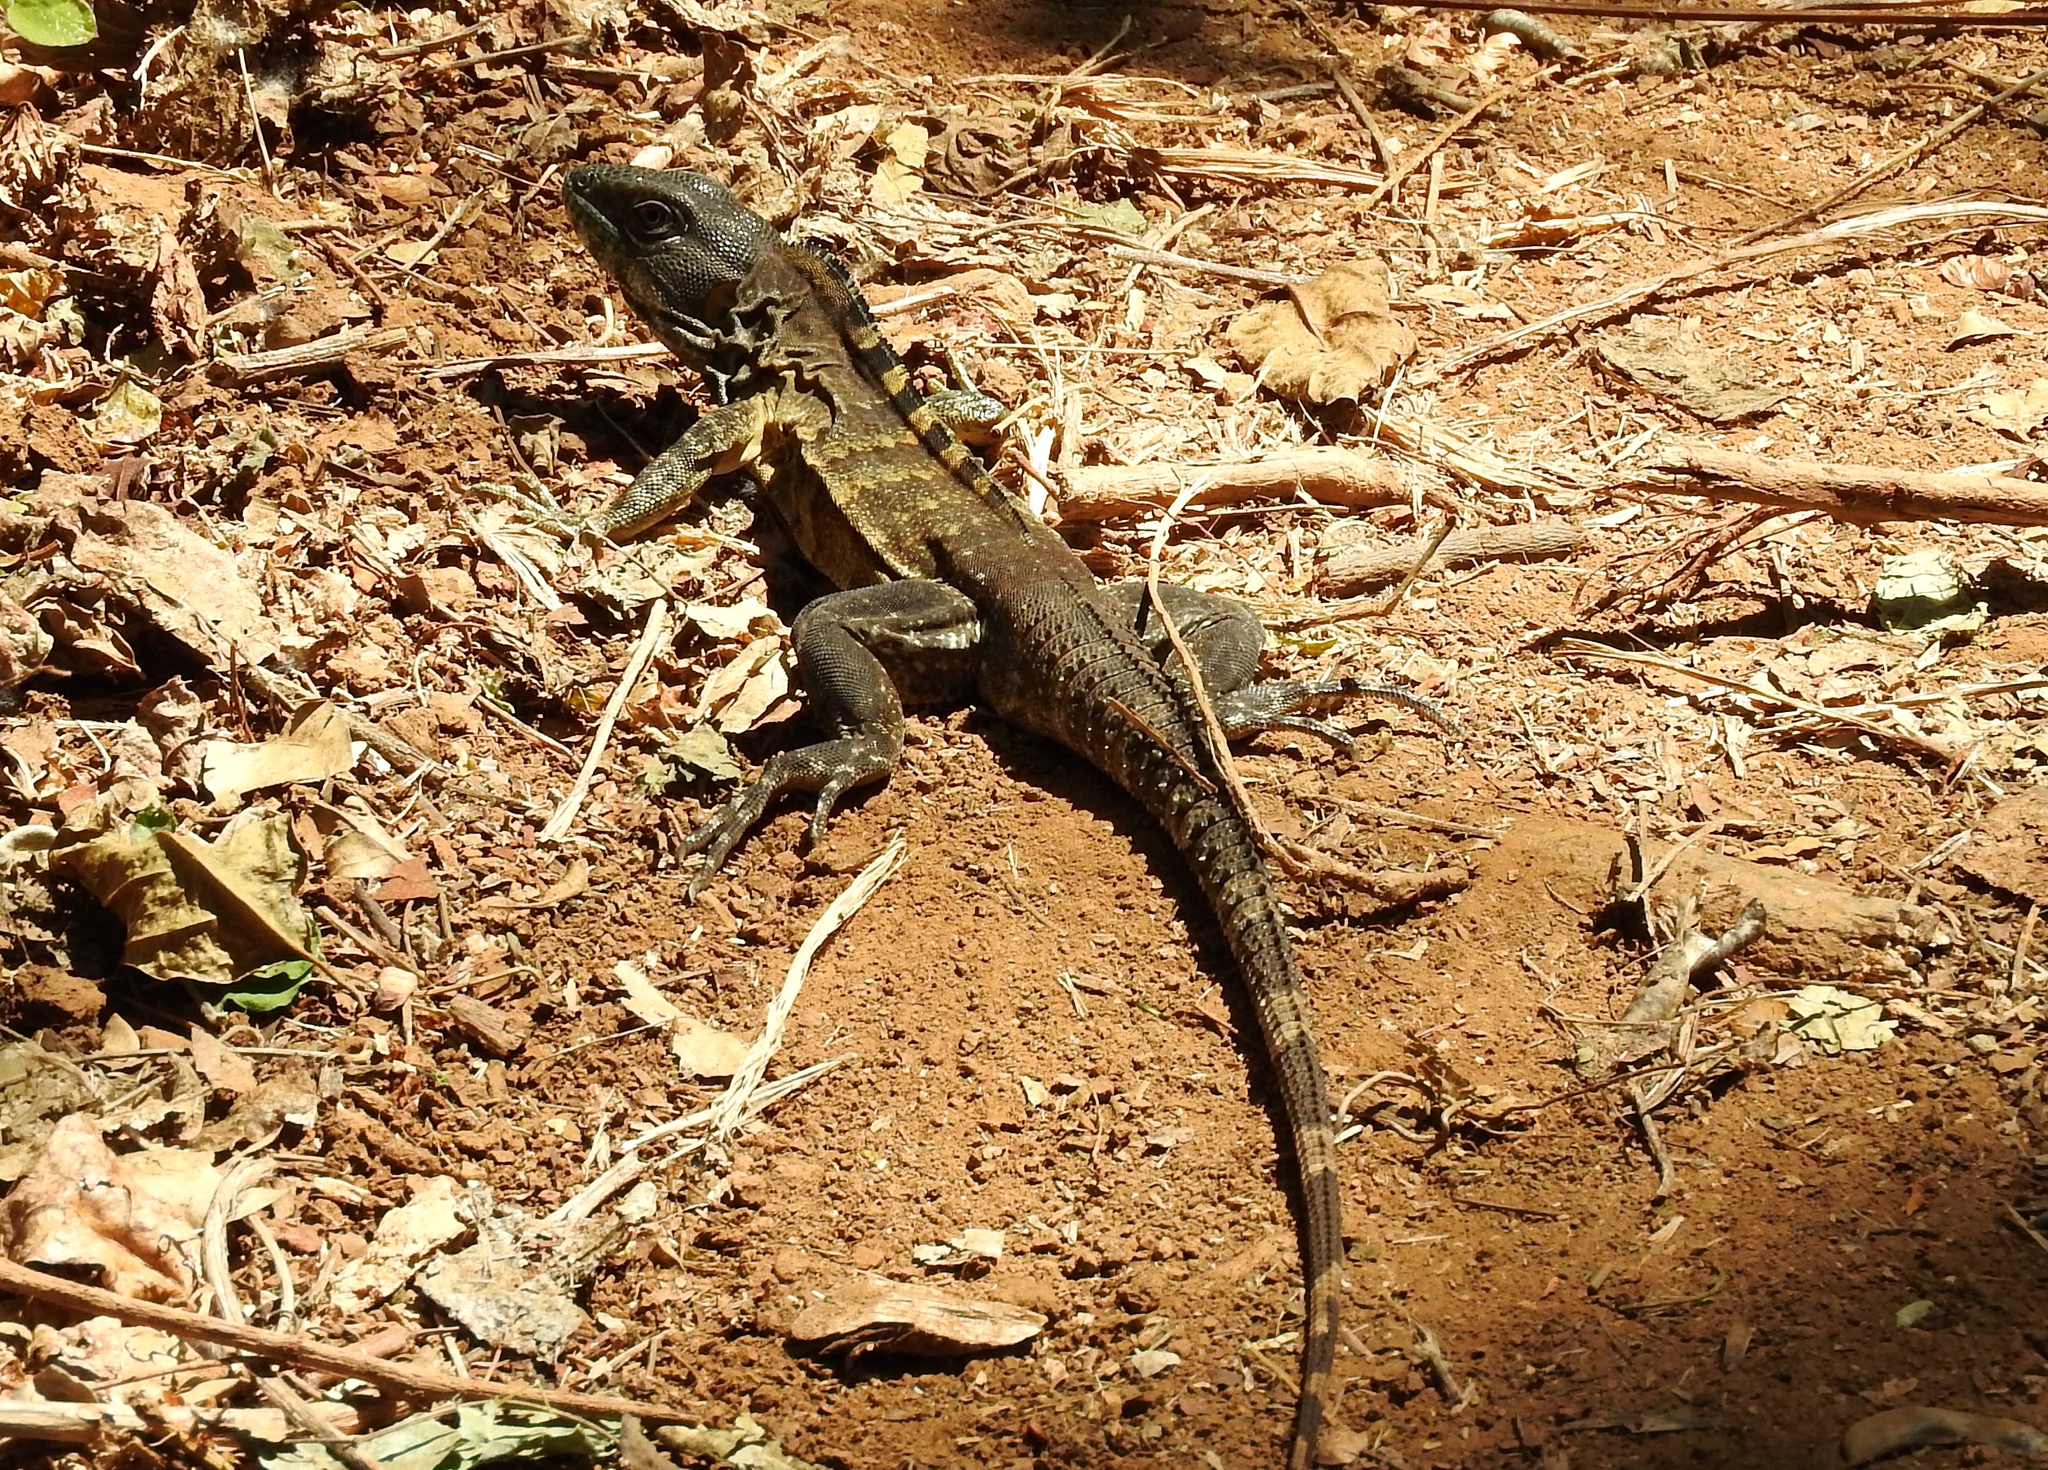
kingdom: Animalia
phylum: Chordata
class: Squamata
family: Iguanidae
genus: Ctenosaura
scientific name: Ctenosaura pectinata
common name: Guerreran spiny-tailed iguana
